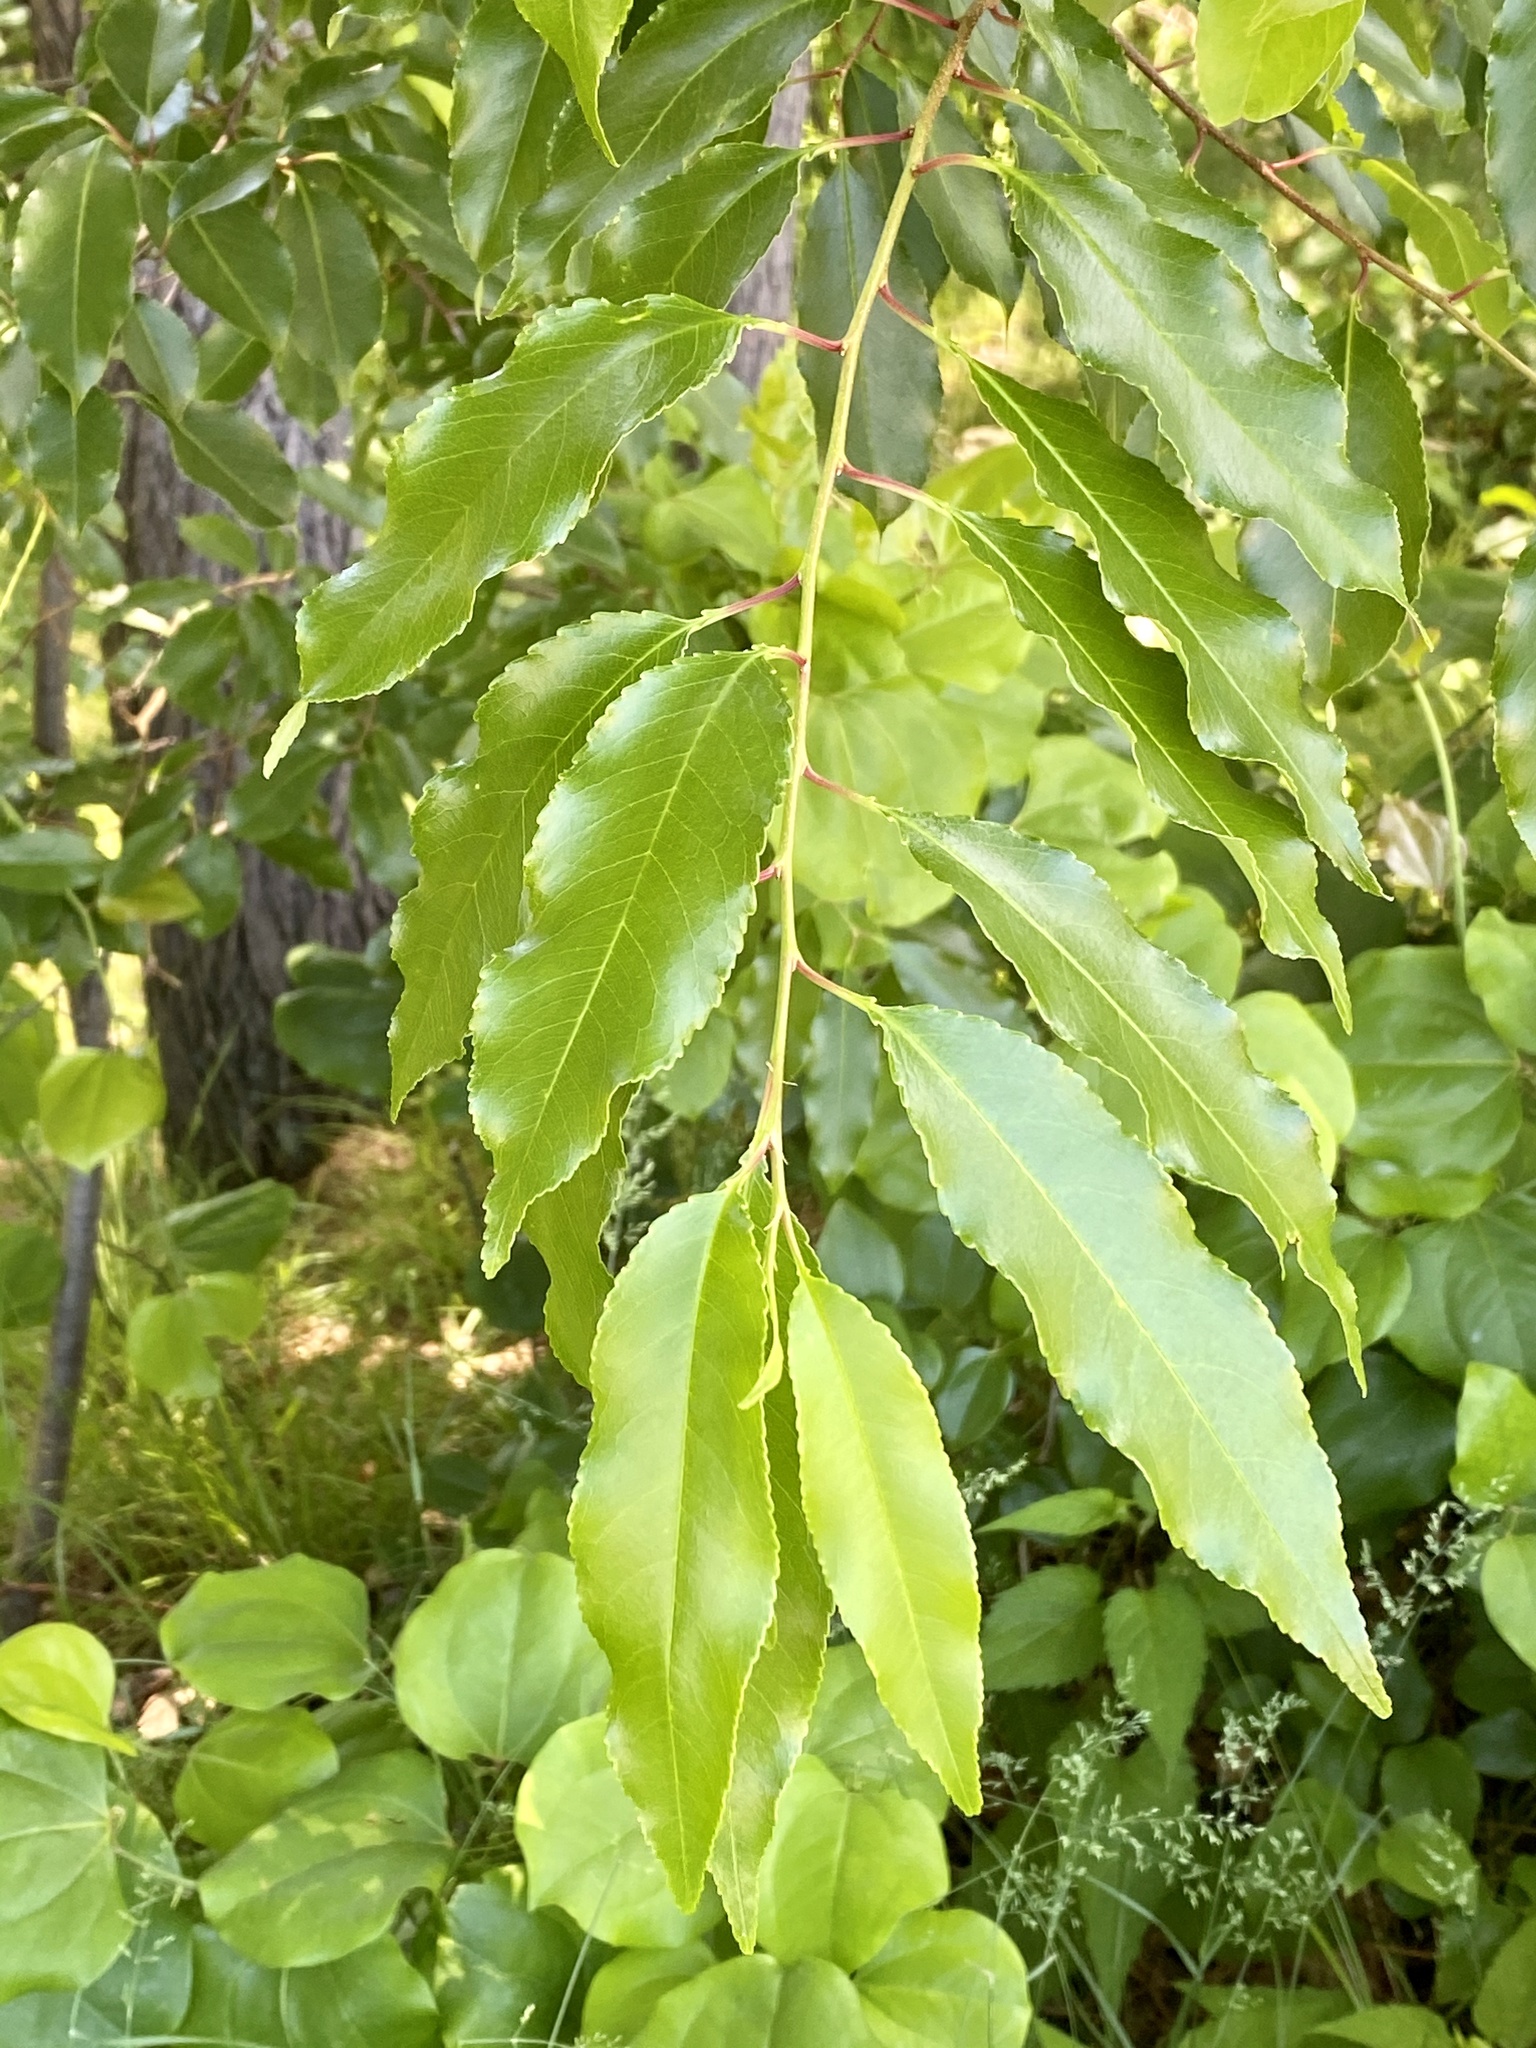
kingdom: Plantae
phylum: Tracheophyta
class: Magnoliopsida
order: Rosales
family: Rosaceae
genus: Prunus
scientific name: Prunus serotina
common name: Black cherry
